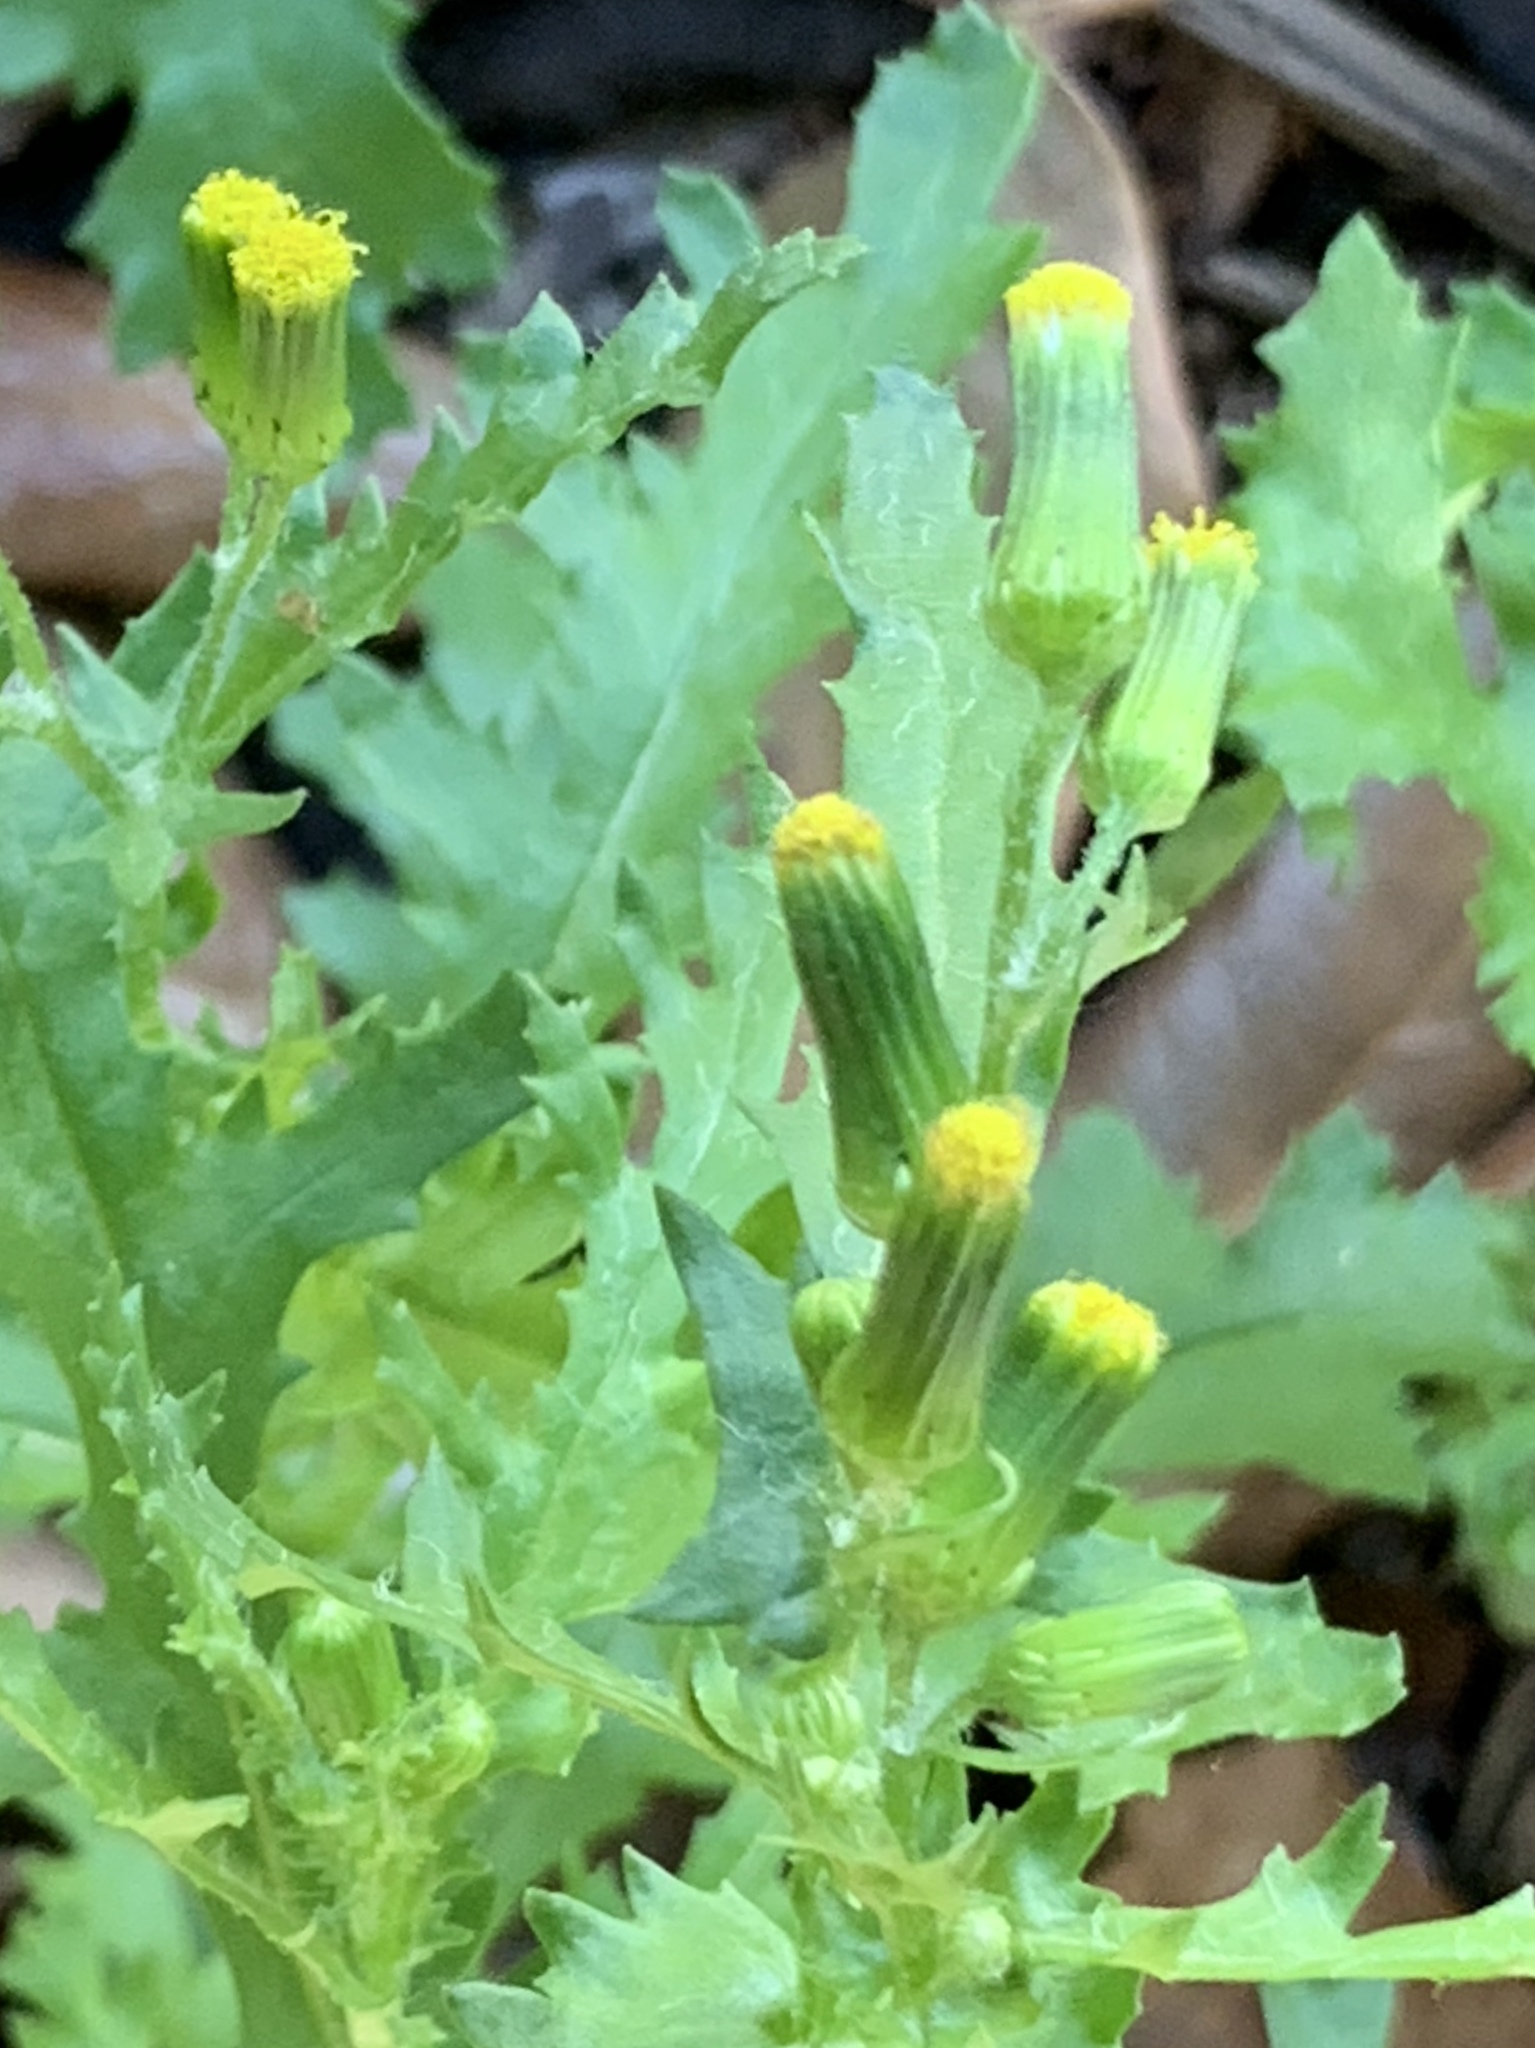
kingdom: Plantae
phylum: Tracheophyta
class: Magnoliopsida
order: Asterales
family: Asteraceae
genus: Senecio
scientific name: Senecio vulgaris
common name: Old-man-in-the-spring
